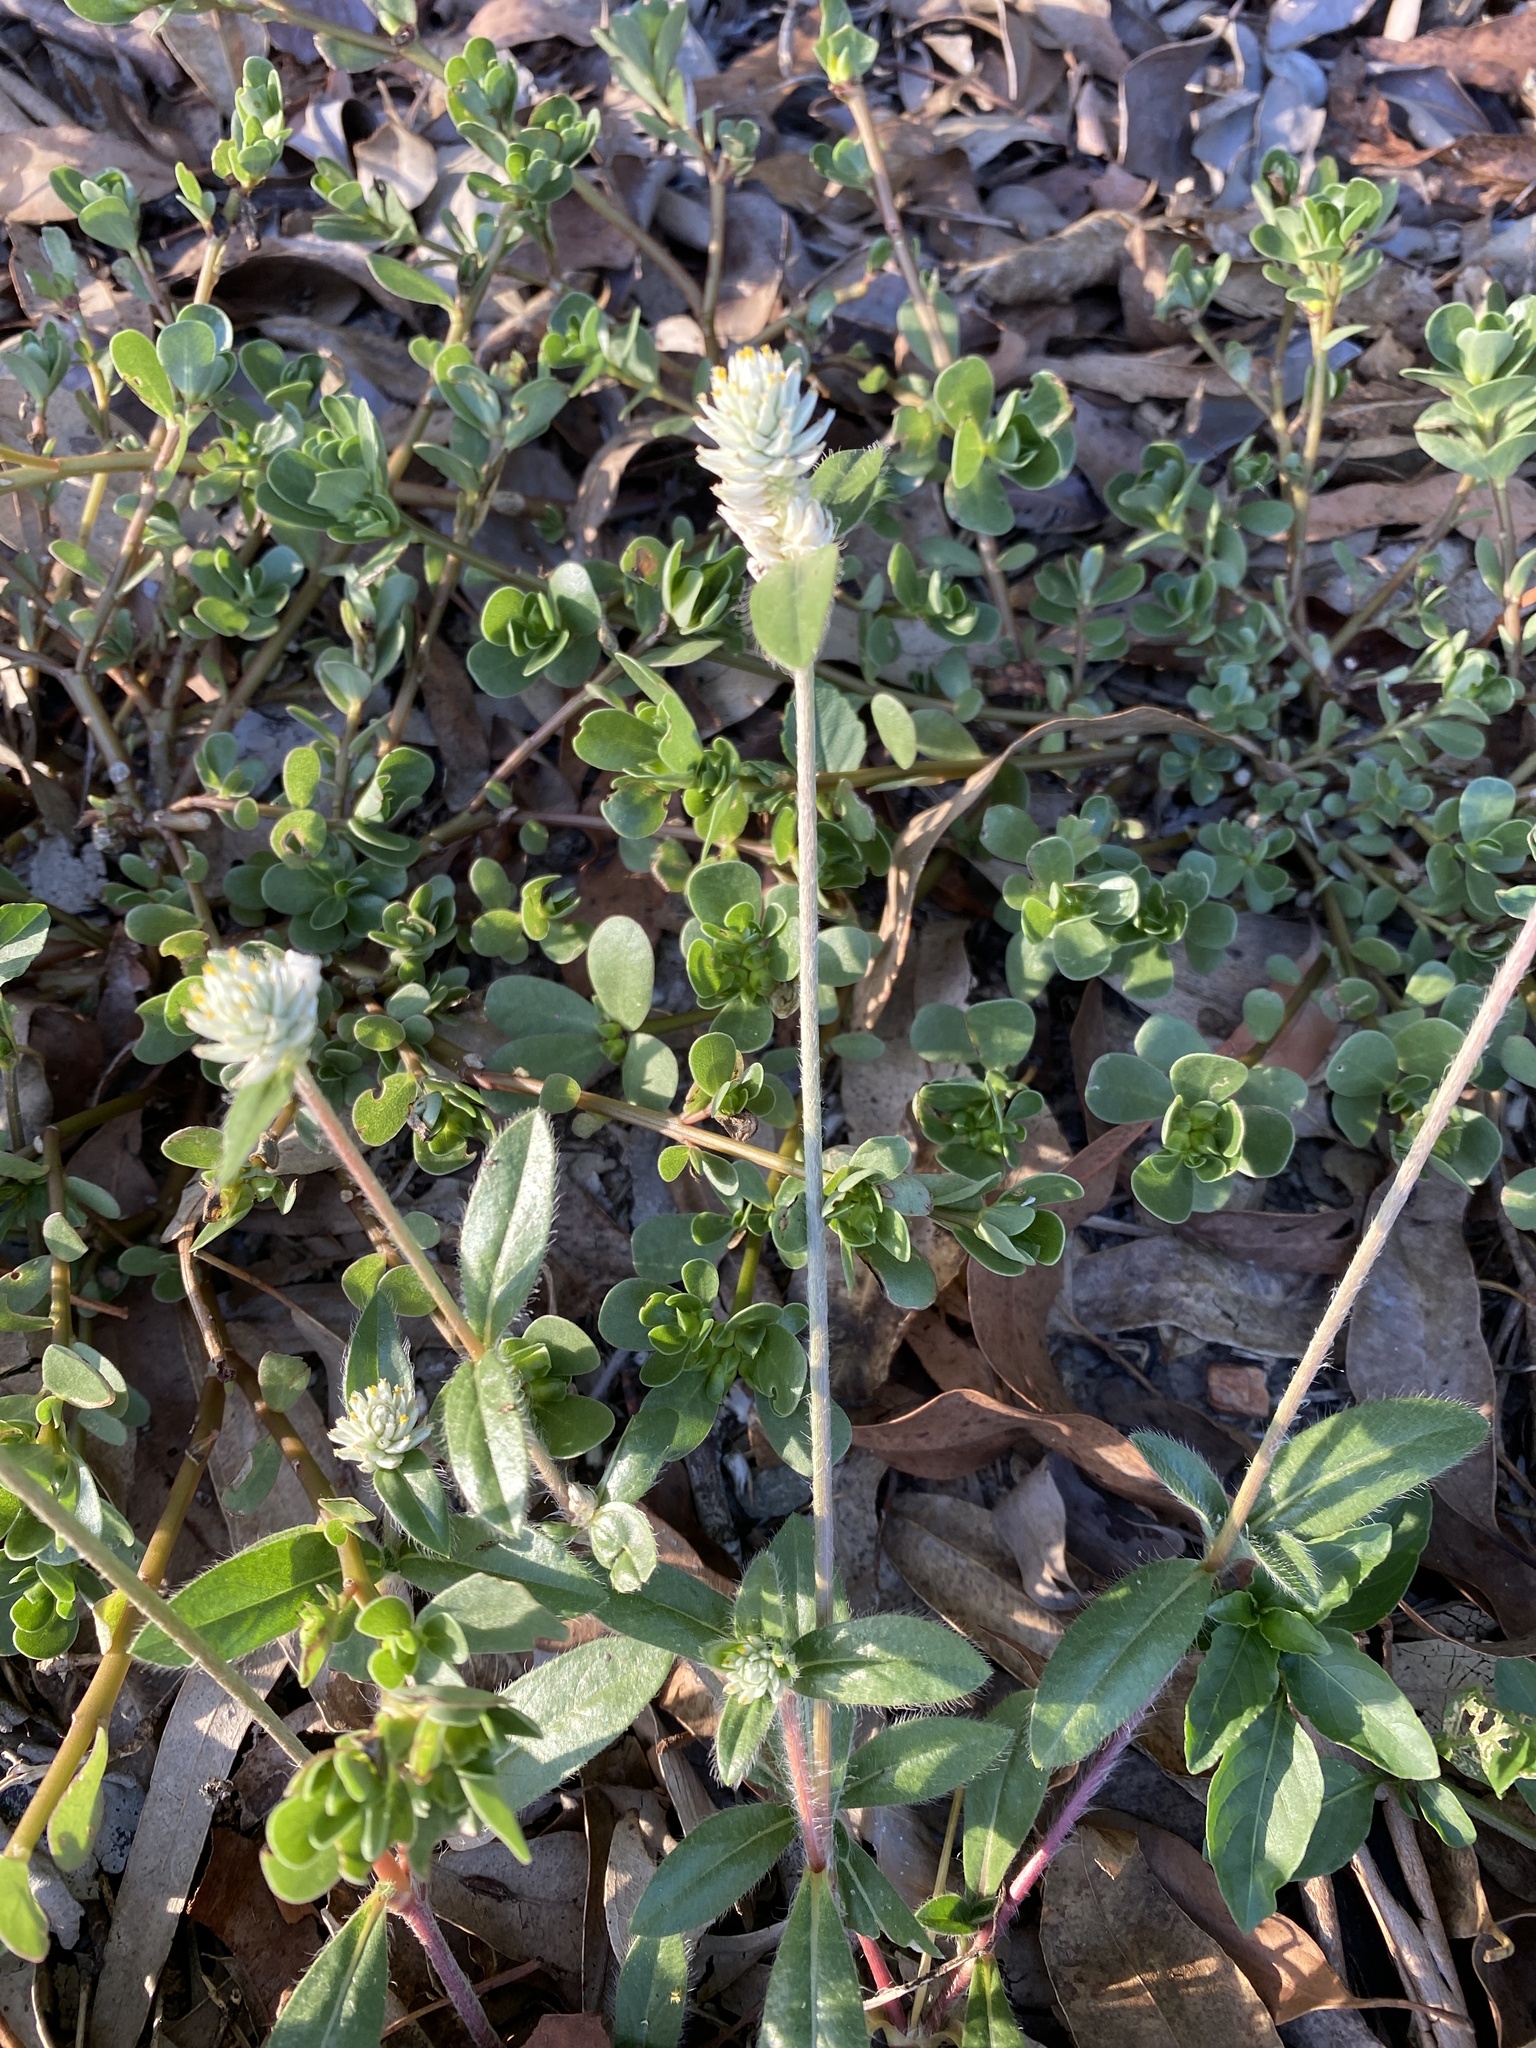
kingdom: Plantae
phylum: Tracheophyta
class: Magnoliopsida
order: Caryophyllales
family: Amaranthaceae
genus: Gomphrena
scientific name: Gomphrena celosioides
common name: Gomphrena-weed
